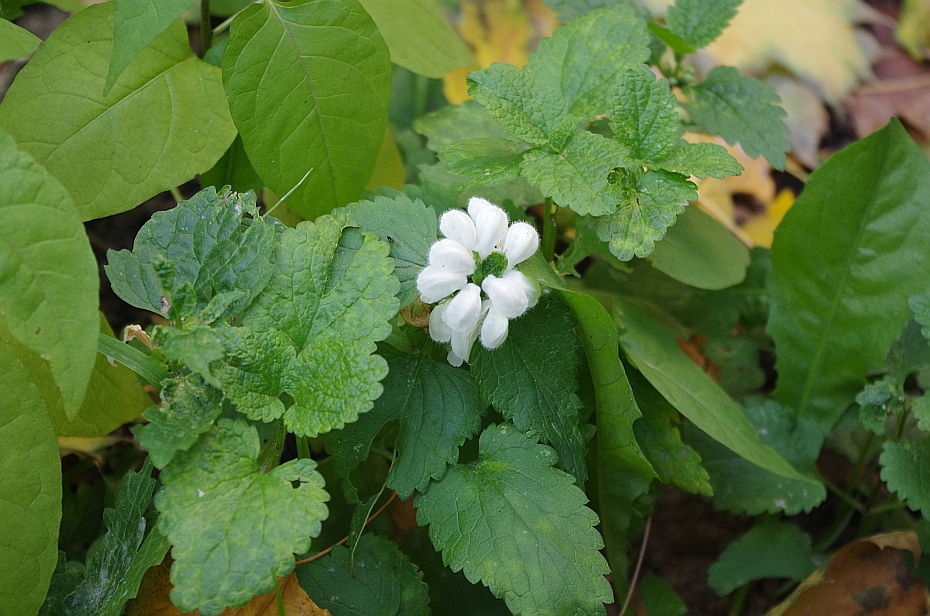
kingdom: Plantae
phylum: Tracheophyta
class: Magnoliopsida
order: Lamiales
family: Lamiaceae
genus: Lamium
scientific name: Lamium album
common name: White dead-nettle
